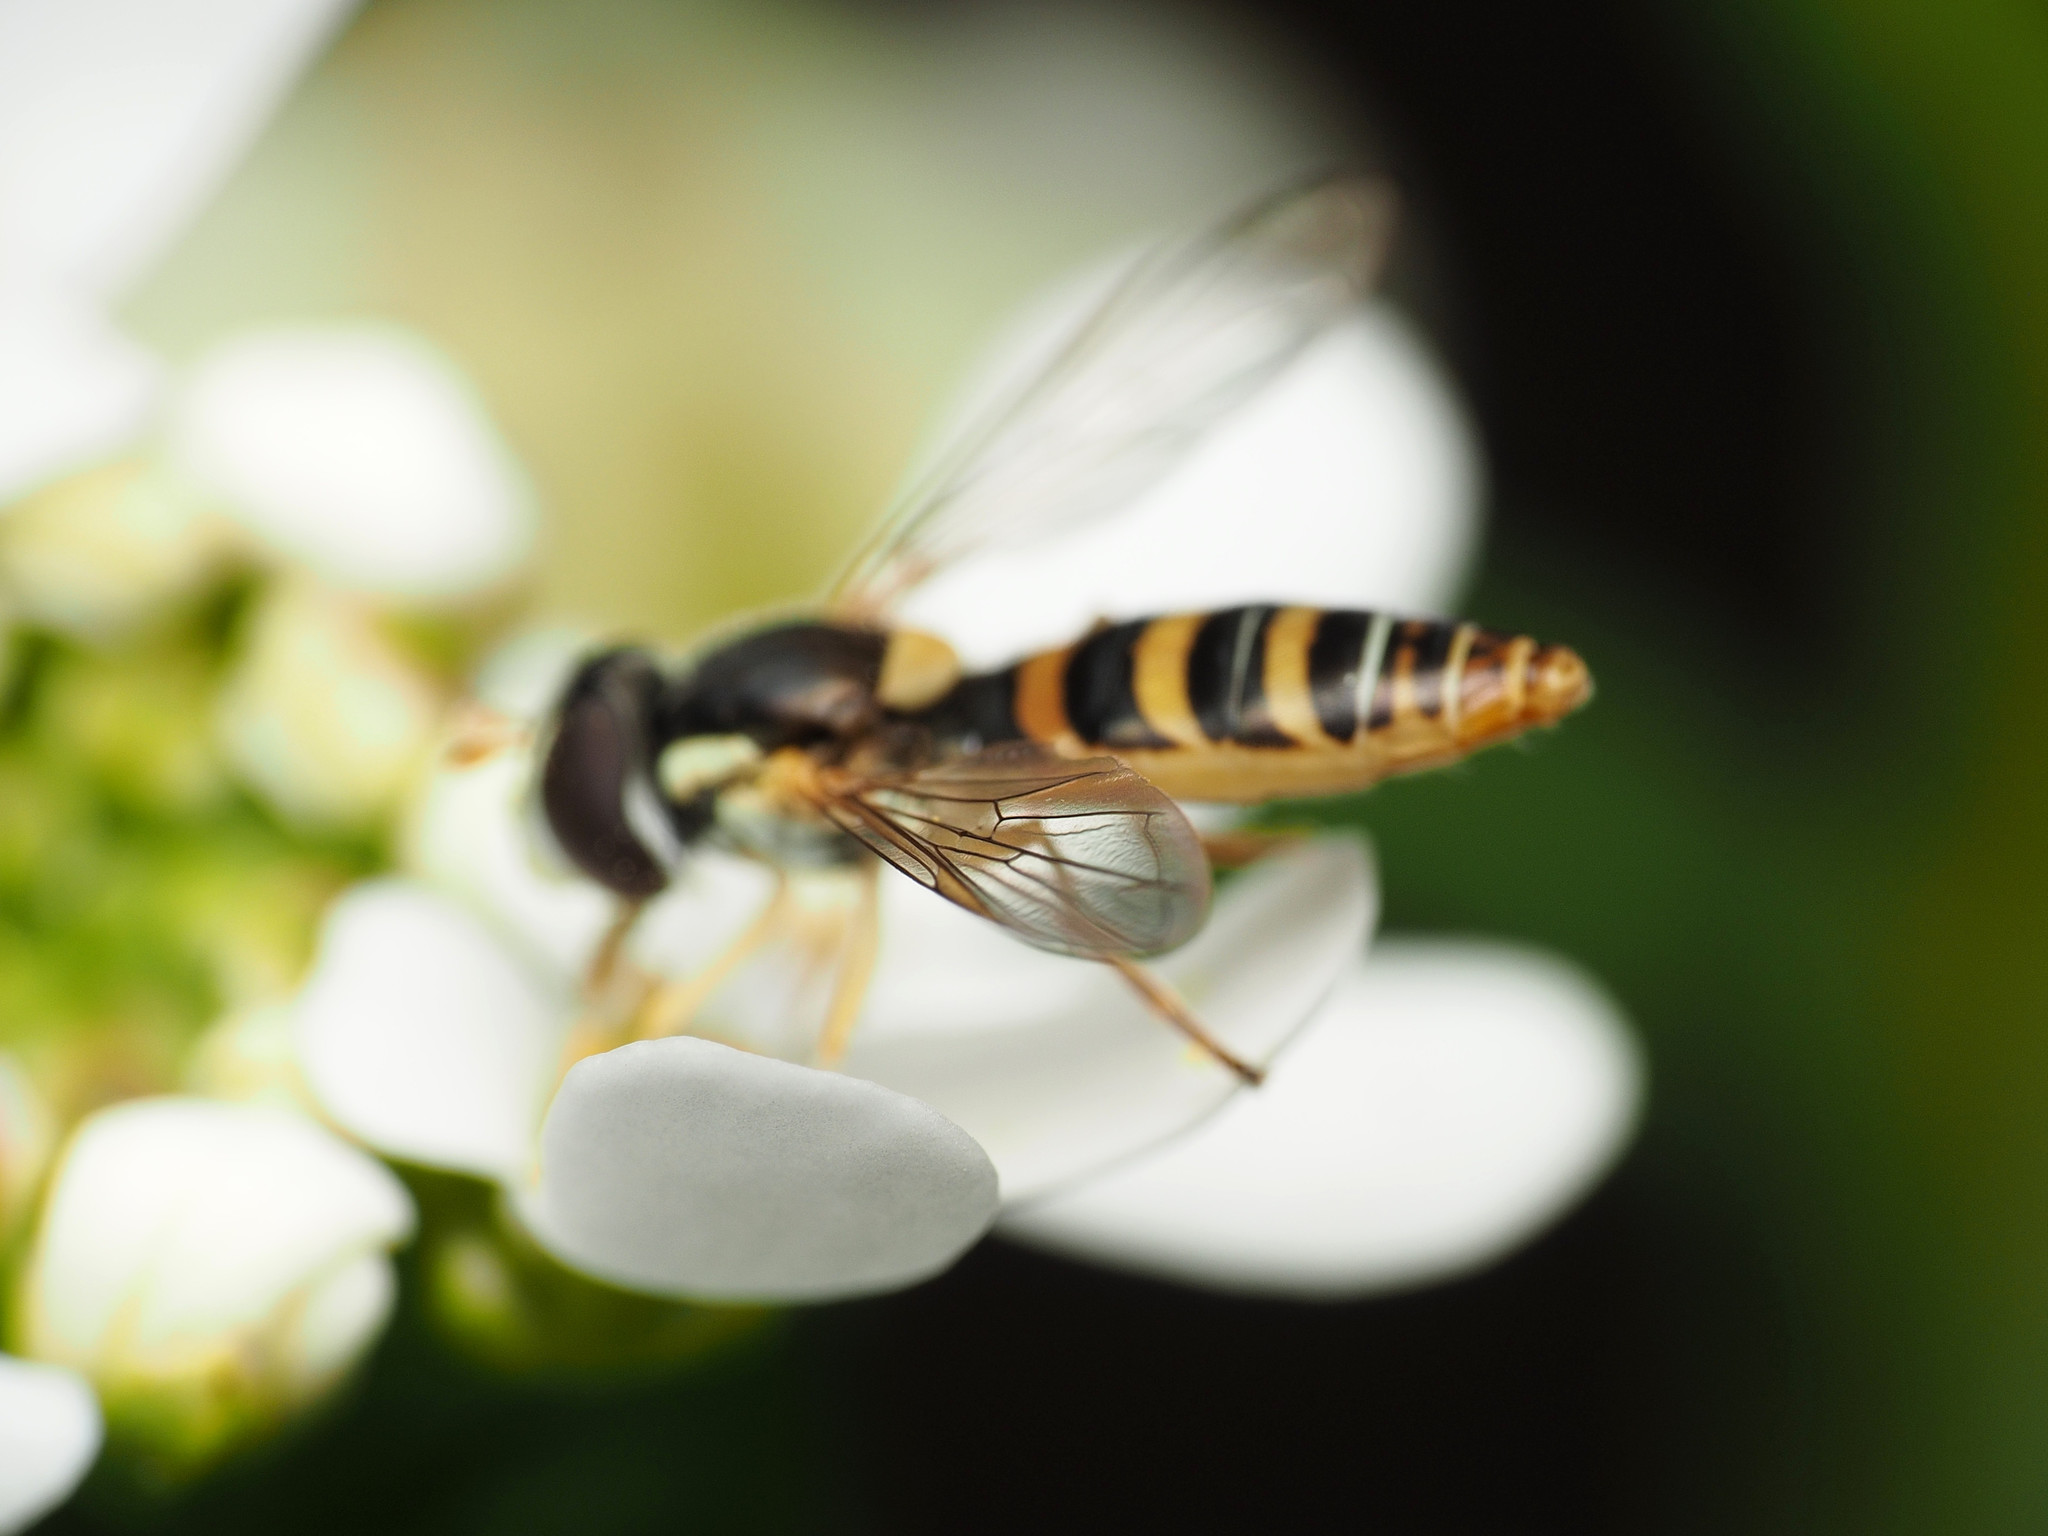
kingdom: Animalia
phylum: Arthropoda
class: Insecta
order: Diptera
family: Syrphidae
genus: Sphaerophoria
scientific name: Sphaerophoria contigua
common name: Tufted globetail
